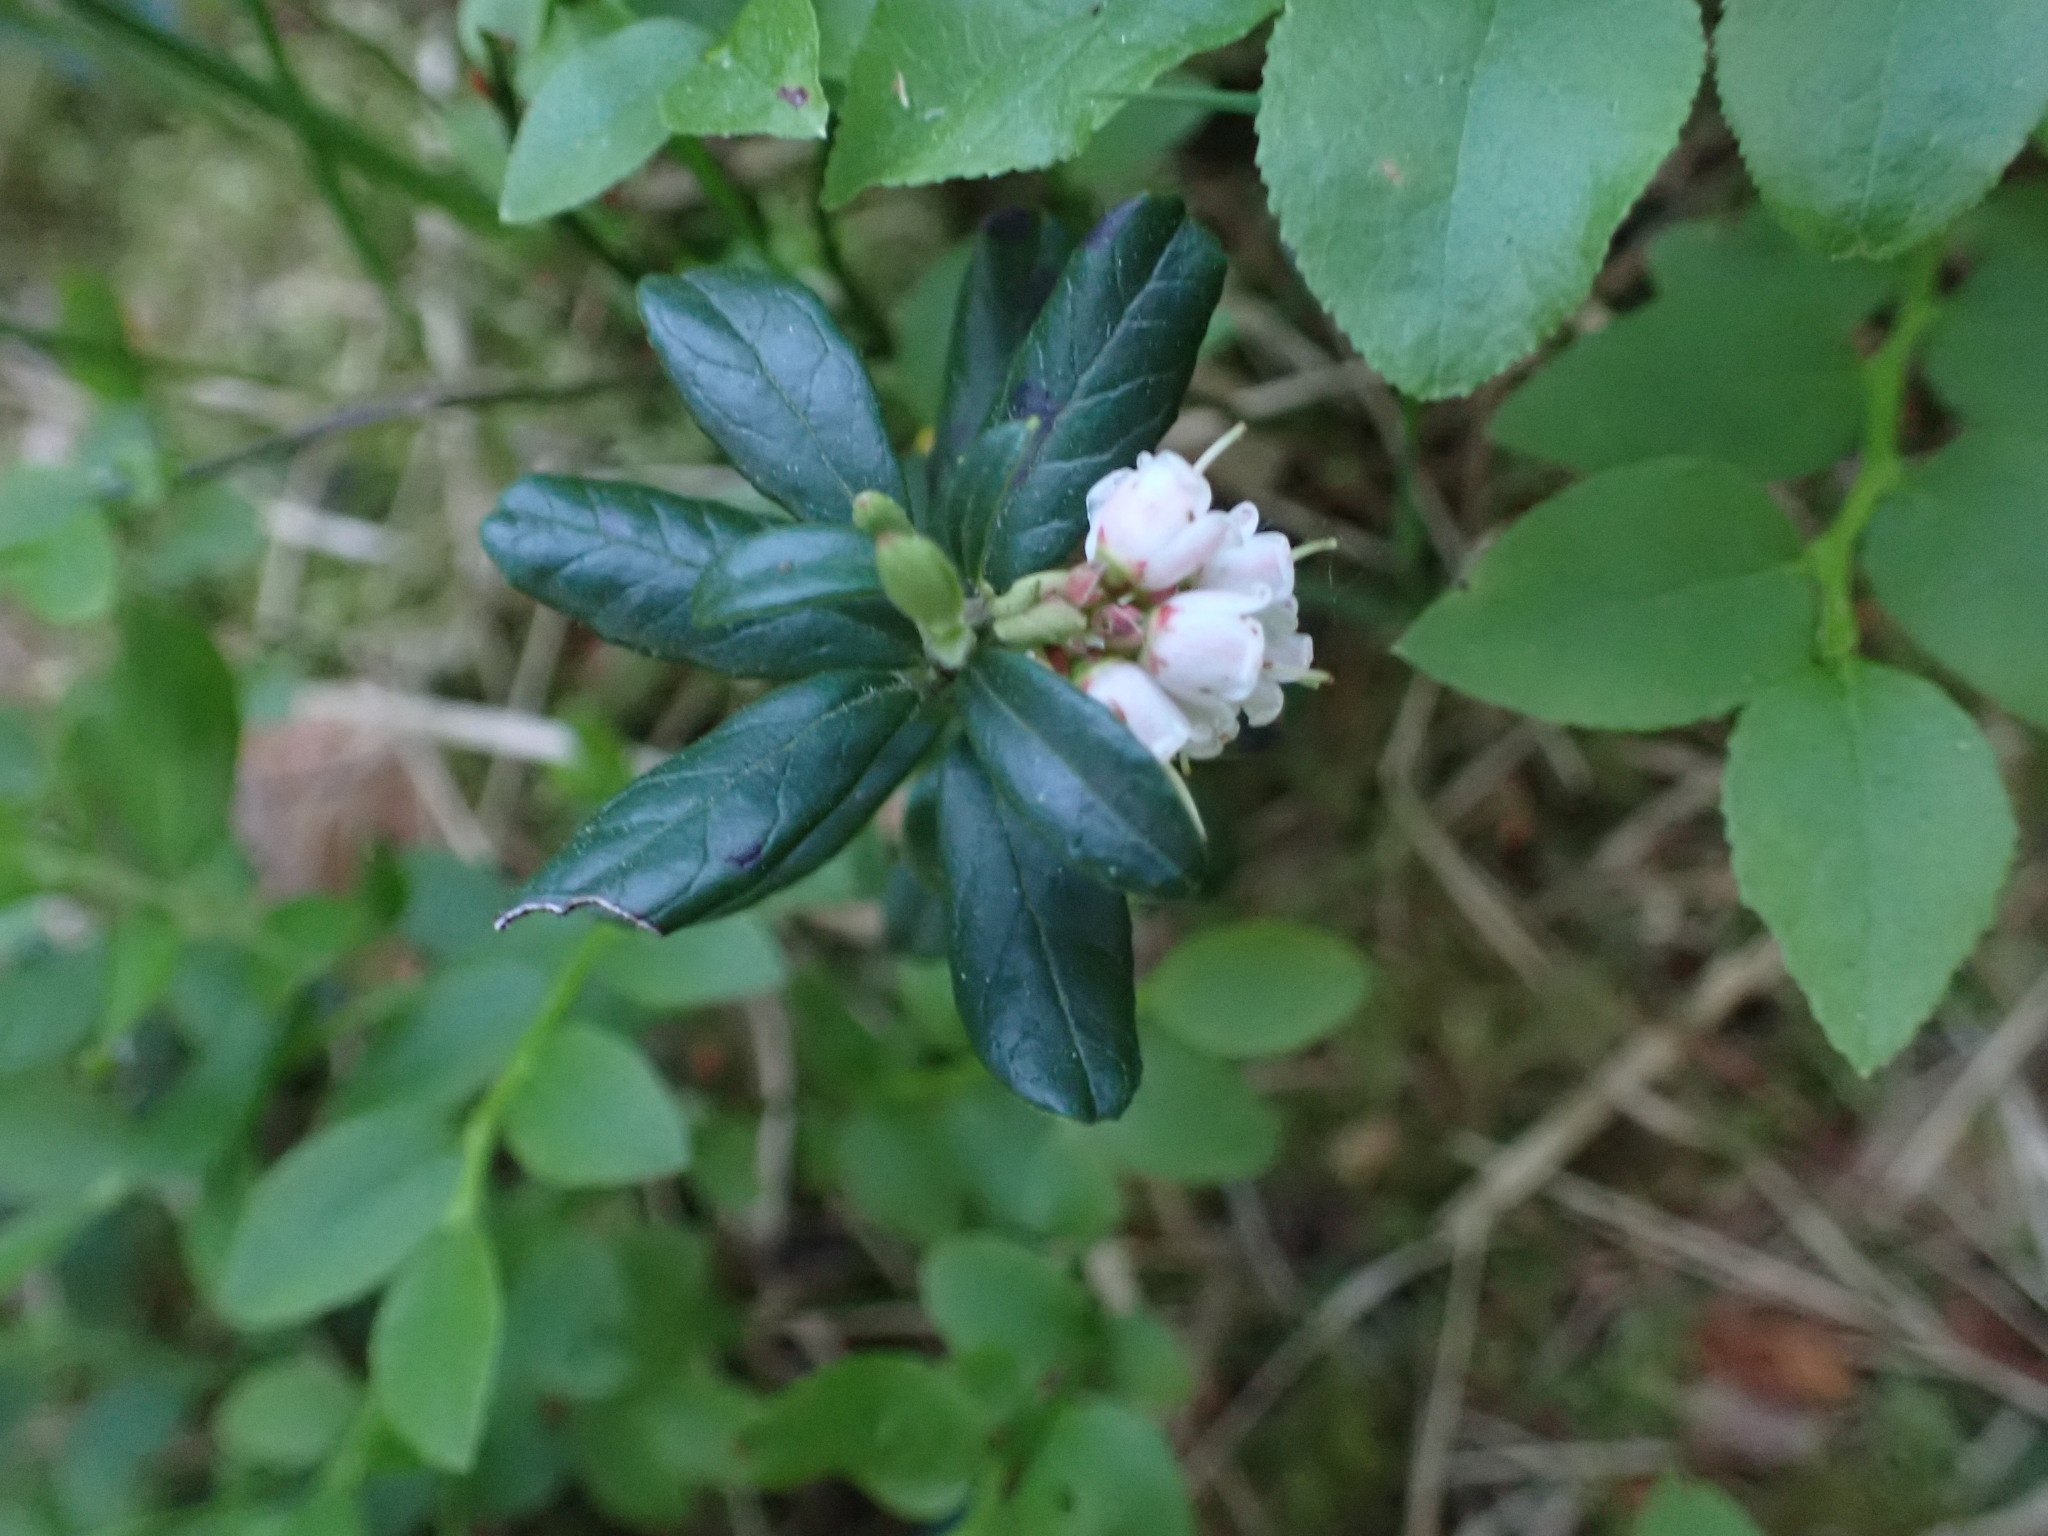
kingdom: Plantae
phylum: Tracheophyta
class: Magnoliopsida
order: Ericales
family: Ericaceae
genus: Vaccinium
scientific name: Vaccinium vitis-idaea
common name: Cowberry
